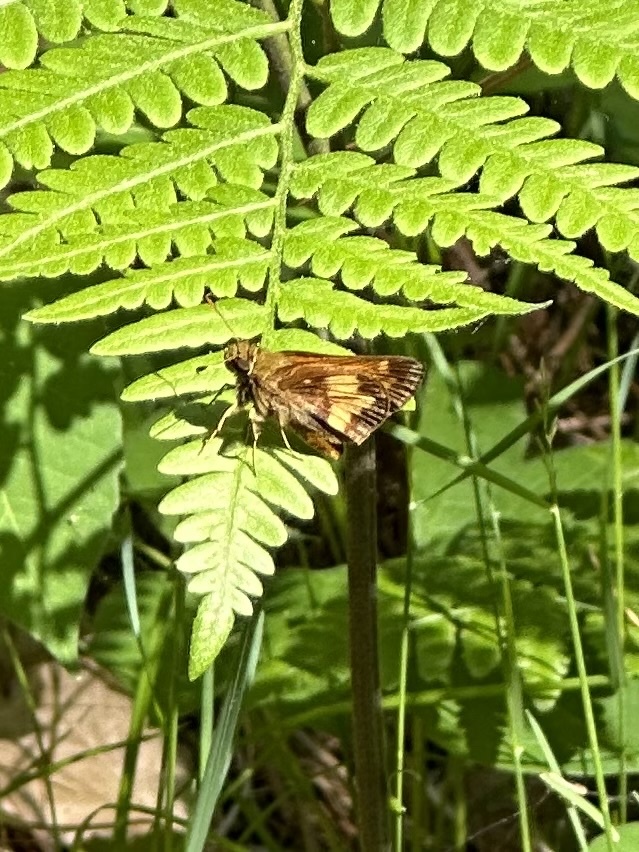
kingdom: Animalia
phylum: Arthropoda
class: Insecta
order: Lepidoptera
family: Hesperiidae
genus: Lon
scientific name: Lon hobomok
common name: Hobomok skipper
